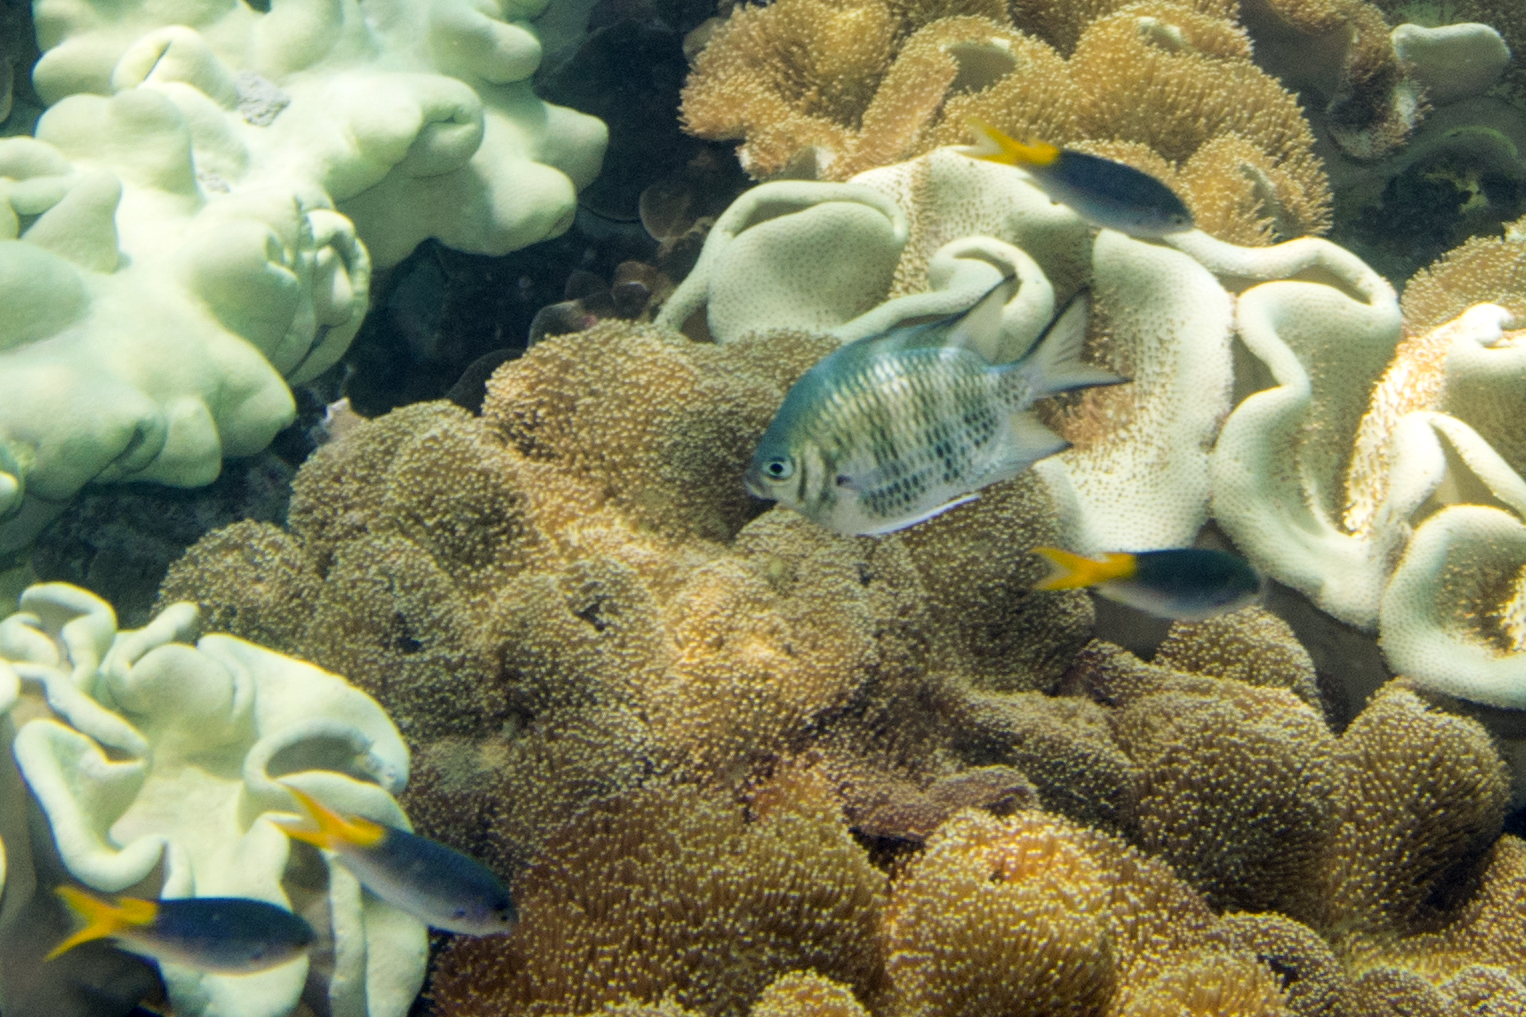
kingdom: Animalia
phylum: Chordata
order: Perciformes
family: Pomacentridae
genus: Amblyglyphidodon
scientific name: Amblyglyphidodon curacao
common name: Staghorn damsel
